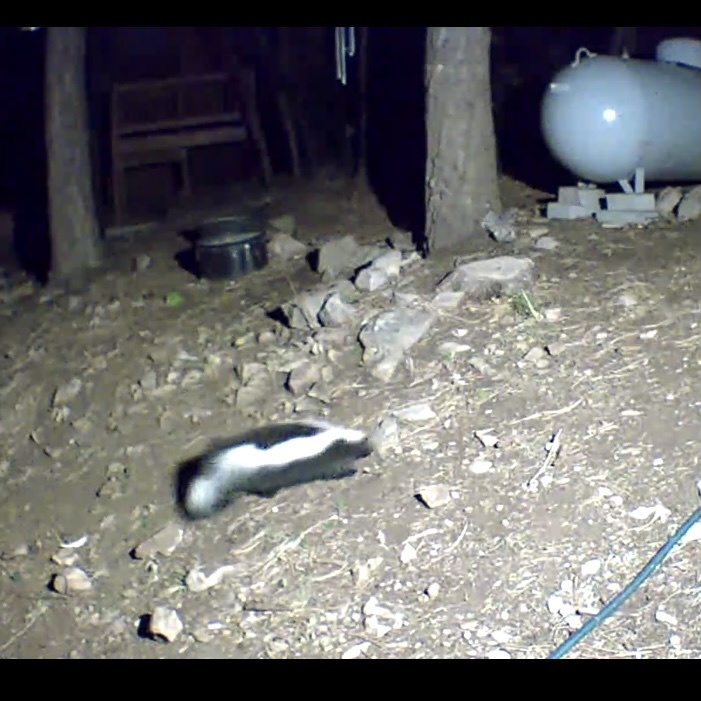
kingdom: Animalia
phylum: Chordata
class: Mammalia
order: Carnivora
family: Mephitidae
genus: Mephitis
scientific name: Mephitis mephitis
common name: Striped skunk
